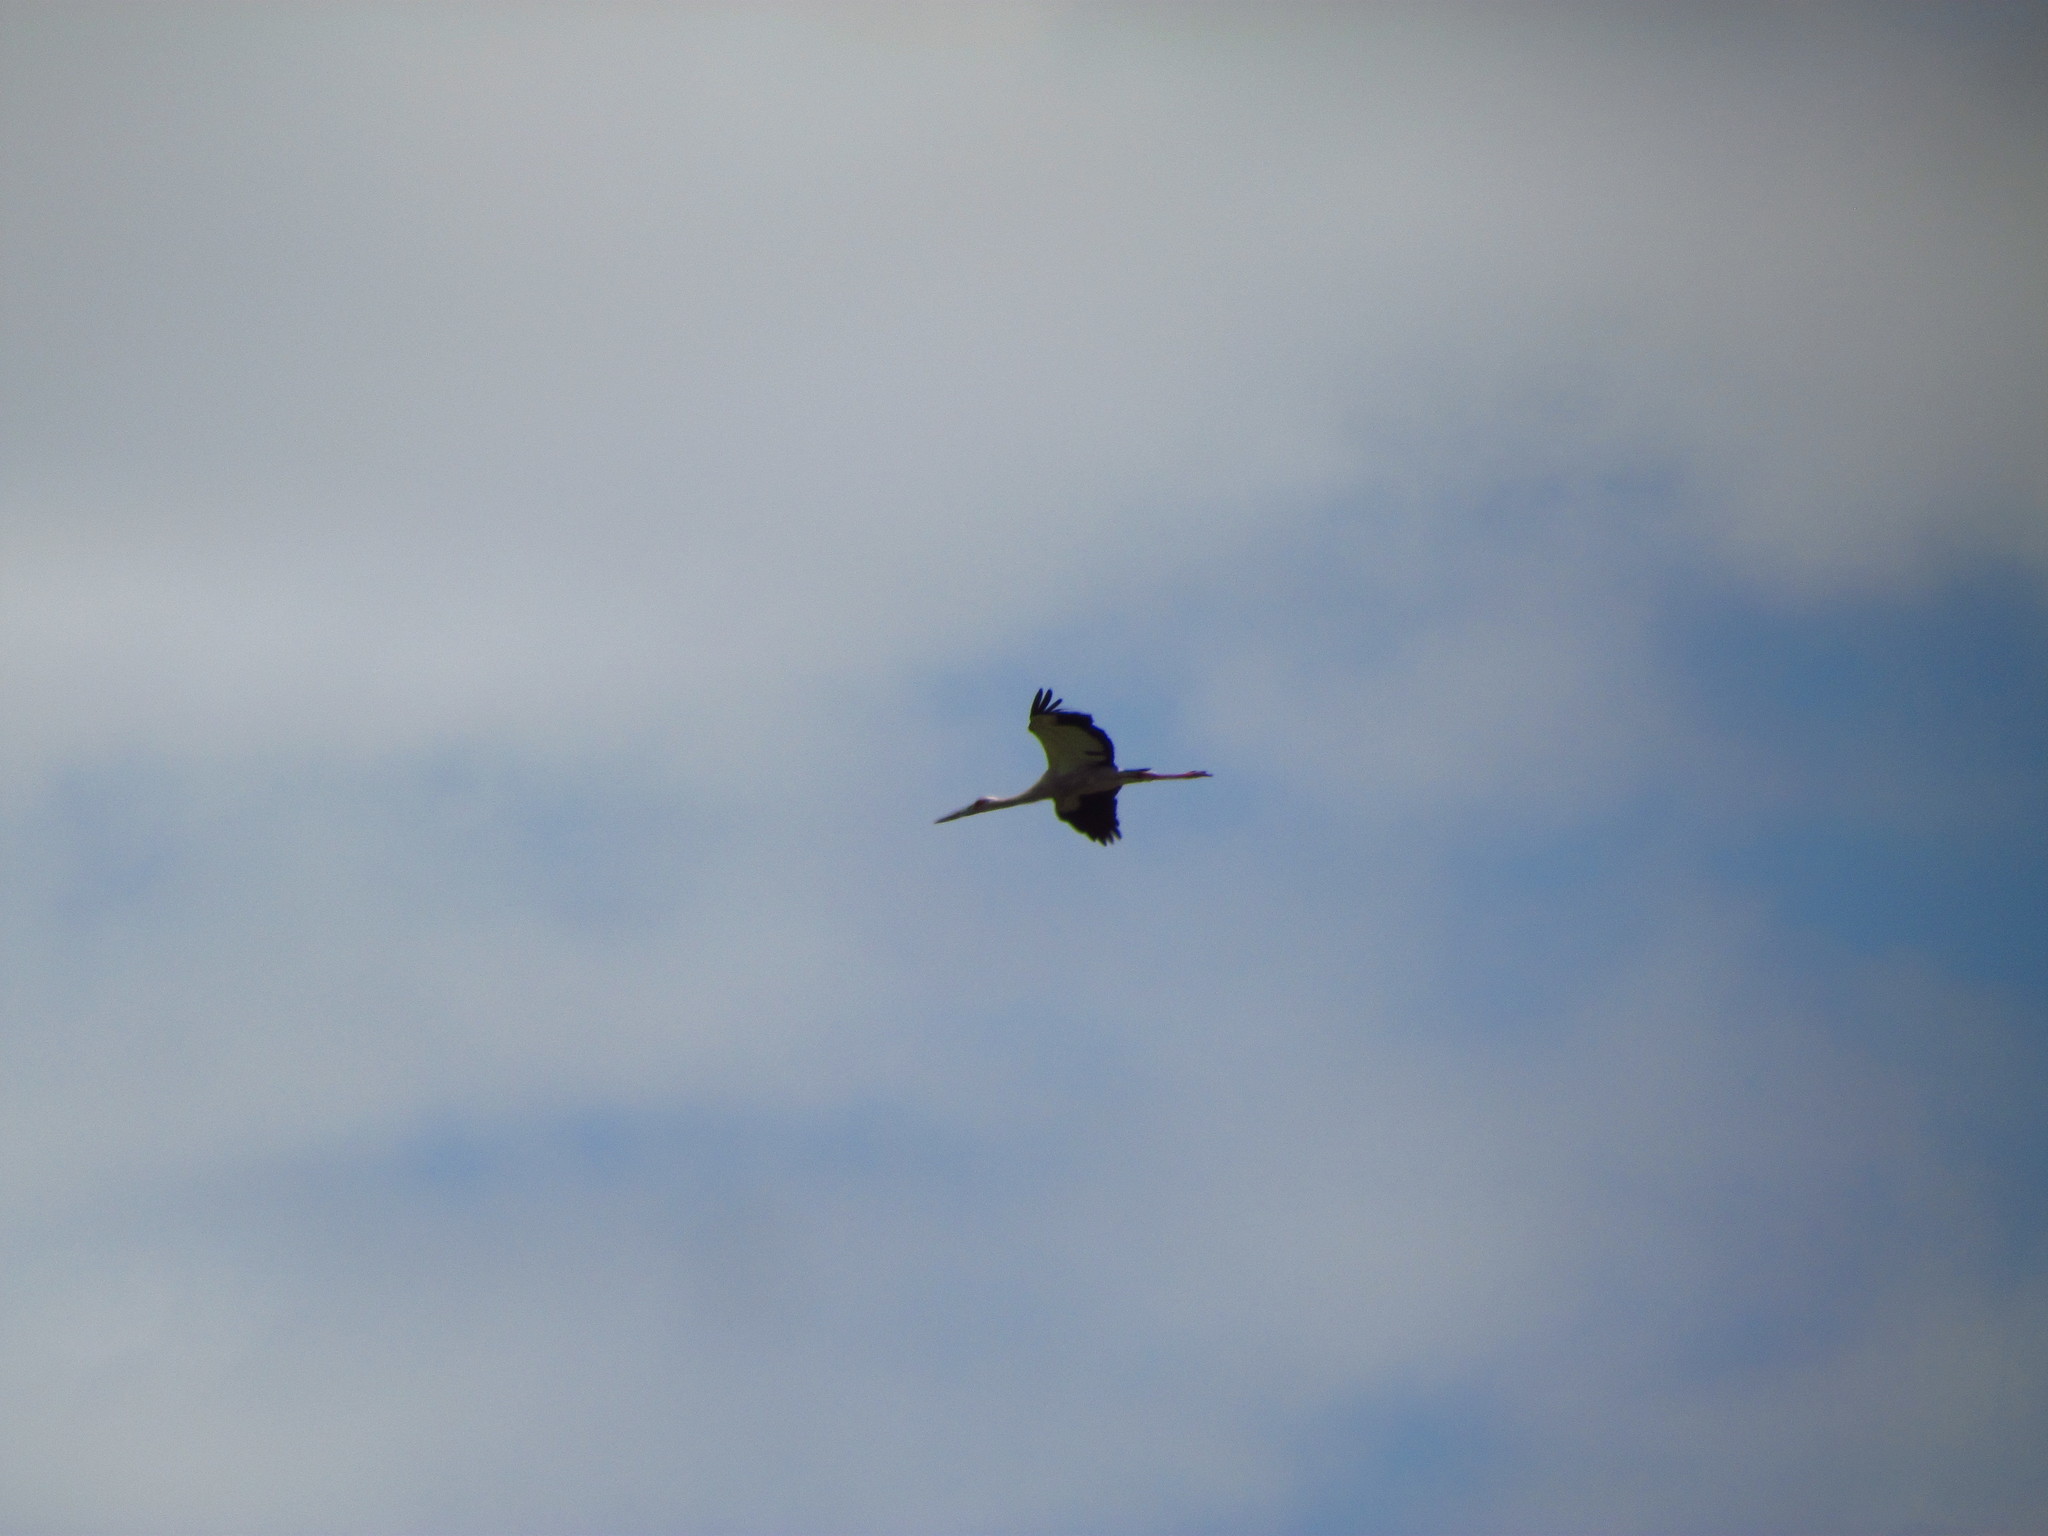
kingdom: Animalia
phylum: Chordata
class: Aves
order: Ciconiiformes
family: Ciconiidae
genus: Ciconia
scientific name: Ciconia maguari
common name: Maguari stork
